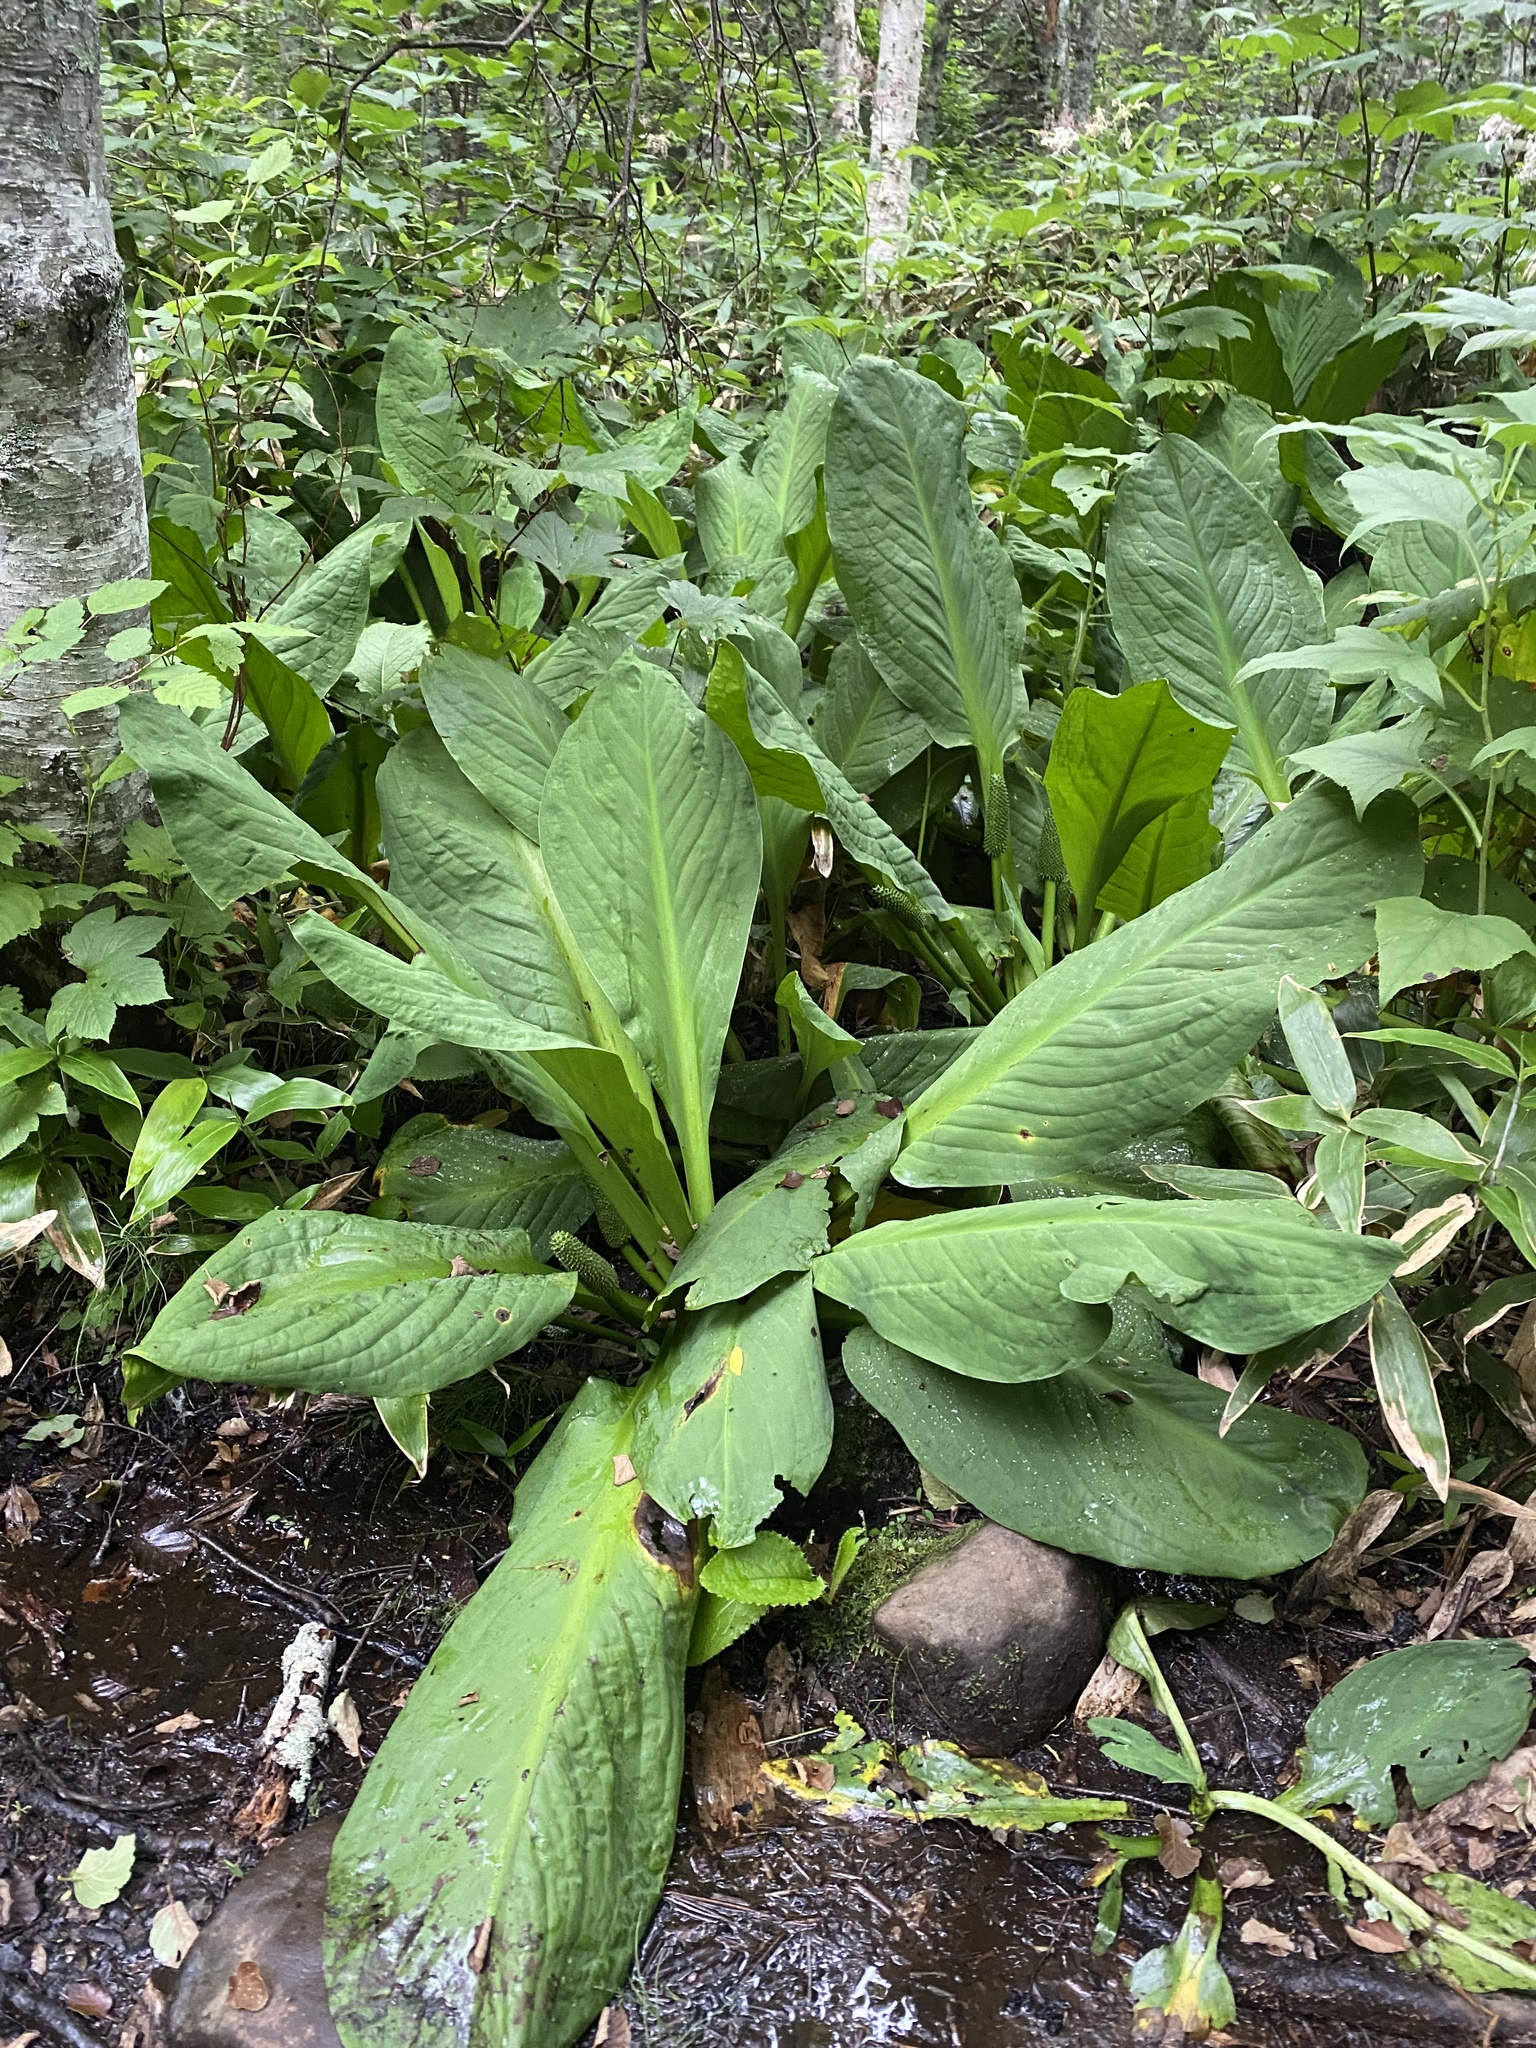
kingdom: Plantae
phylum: Tracheophyta
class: Liliopsida
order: Alismatales
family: Araceae
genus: Lysichiton
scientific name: Lysichiton camtschatcensis
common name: Asian skunk-cabbage
